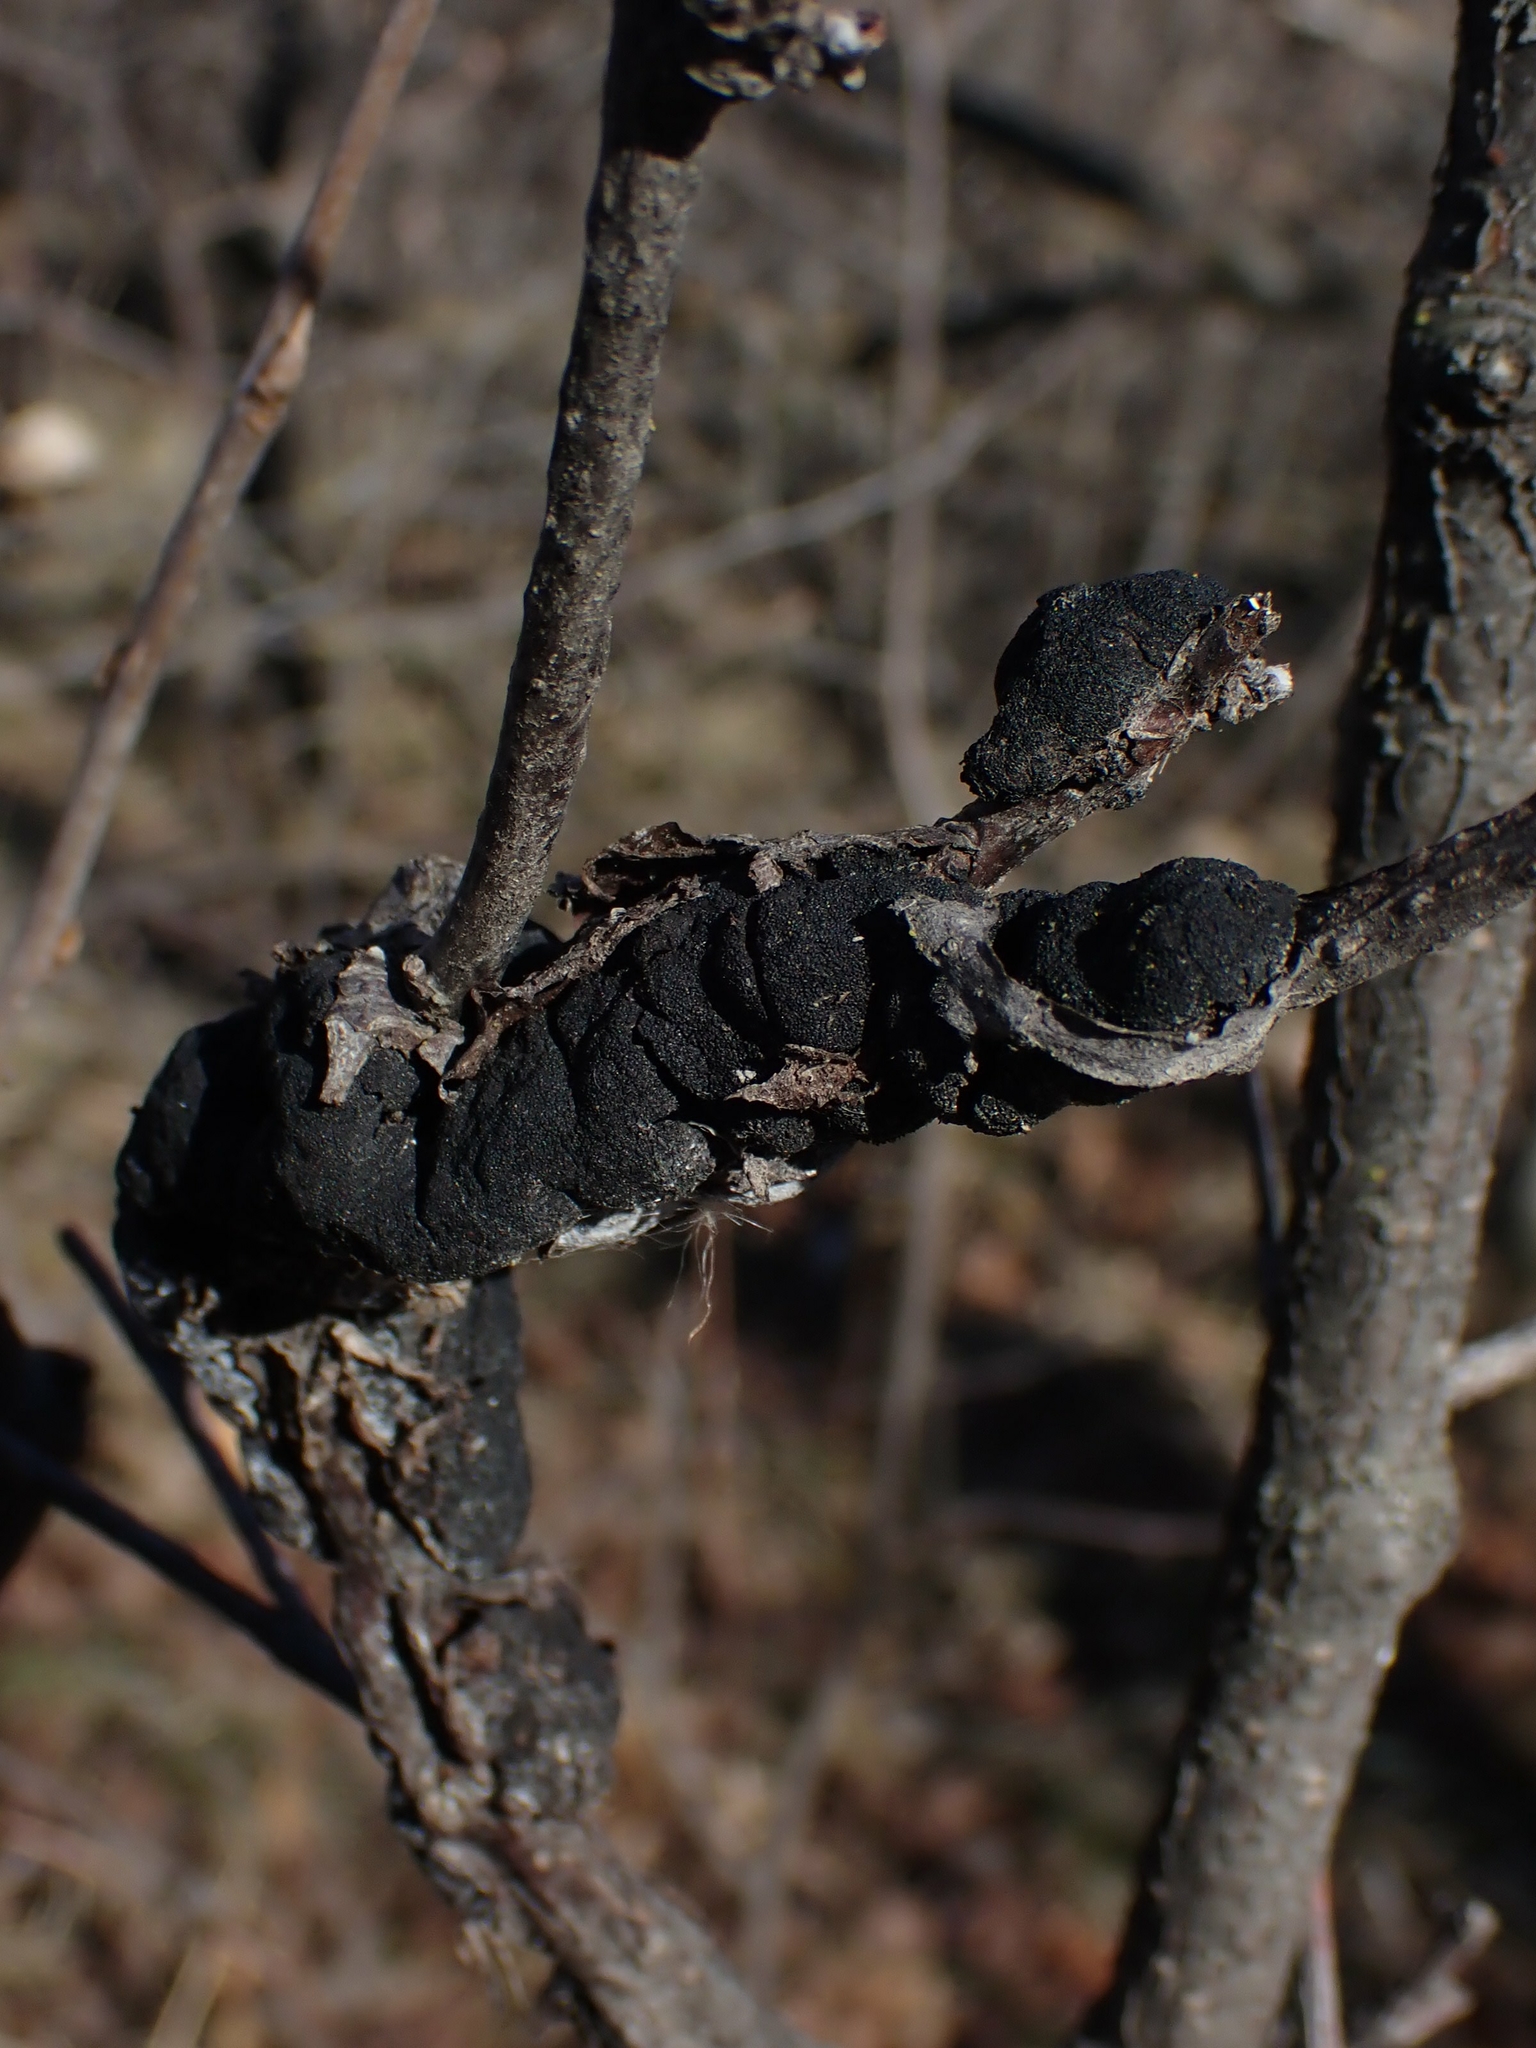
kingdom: Fungi
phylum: Ascomycota
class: Dothideomycetes
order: Venturiales
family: Venturiaceae
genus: Apiosporina
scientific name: Apiosporina morbosa
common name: Black knot
